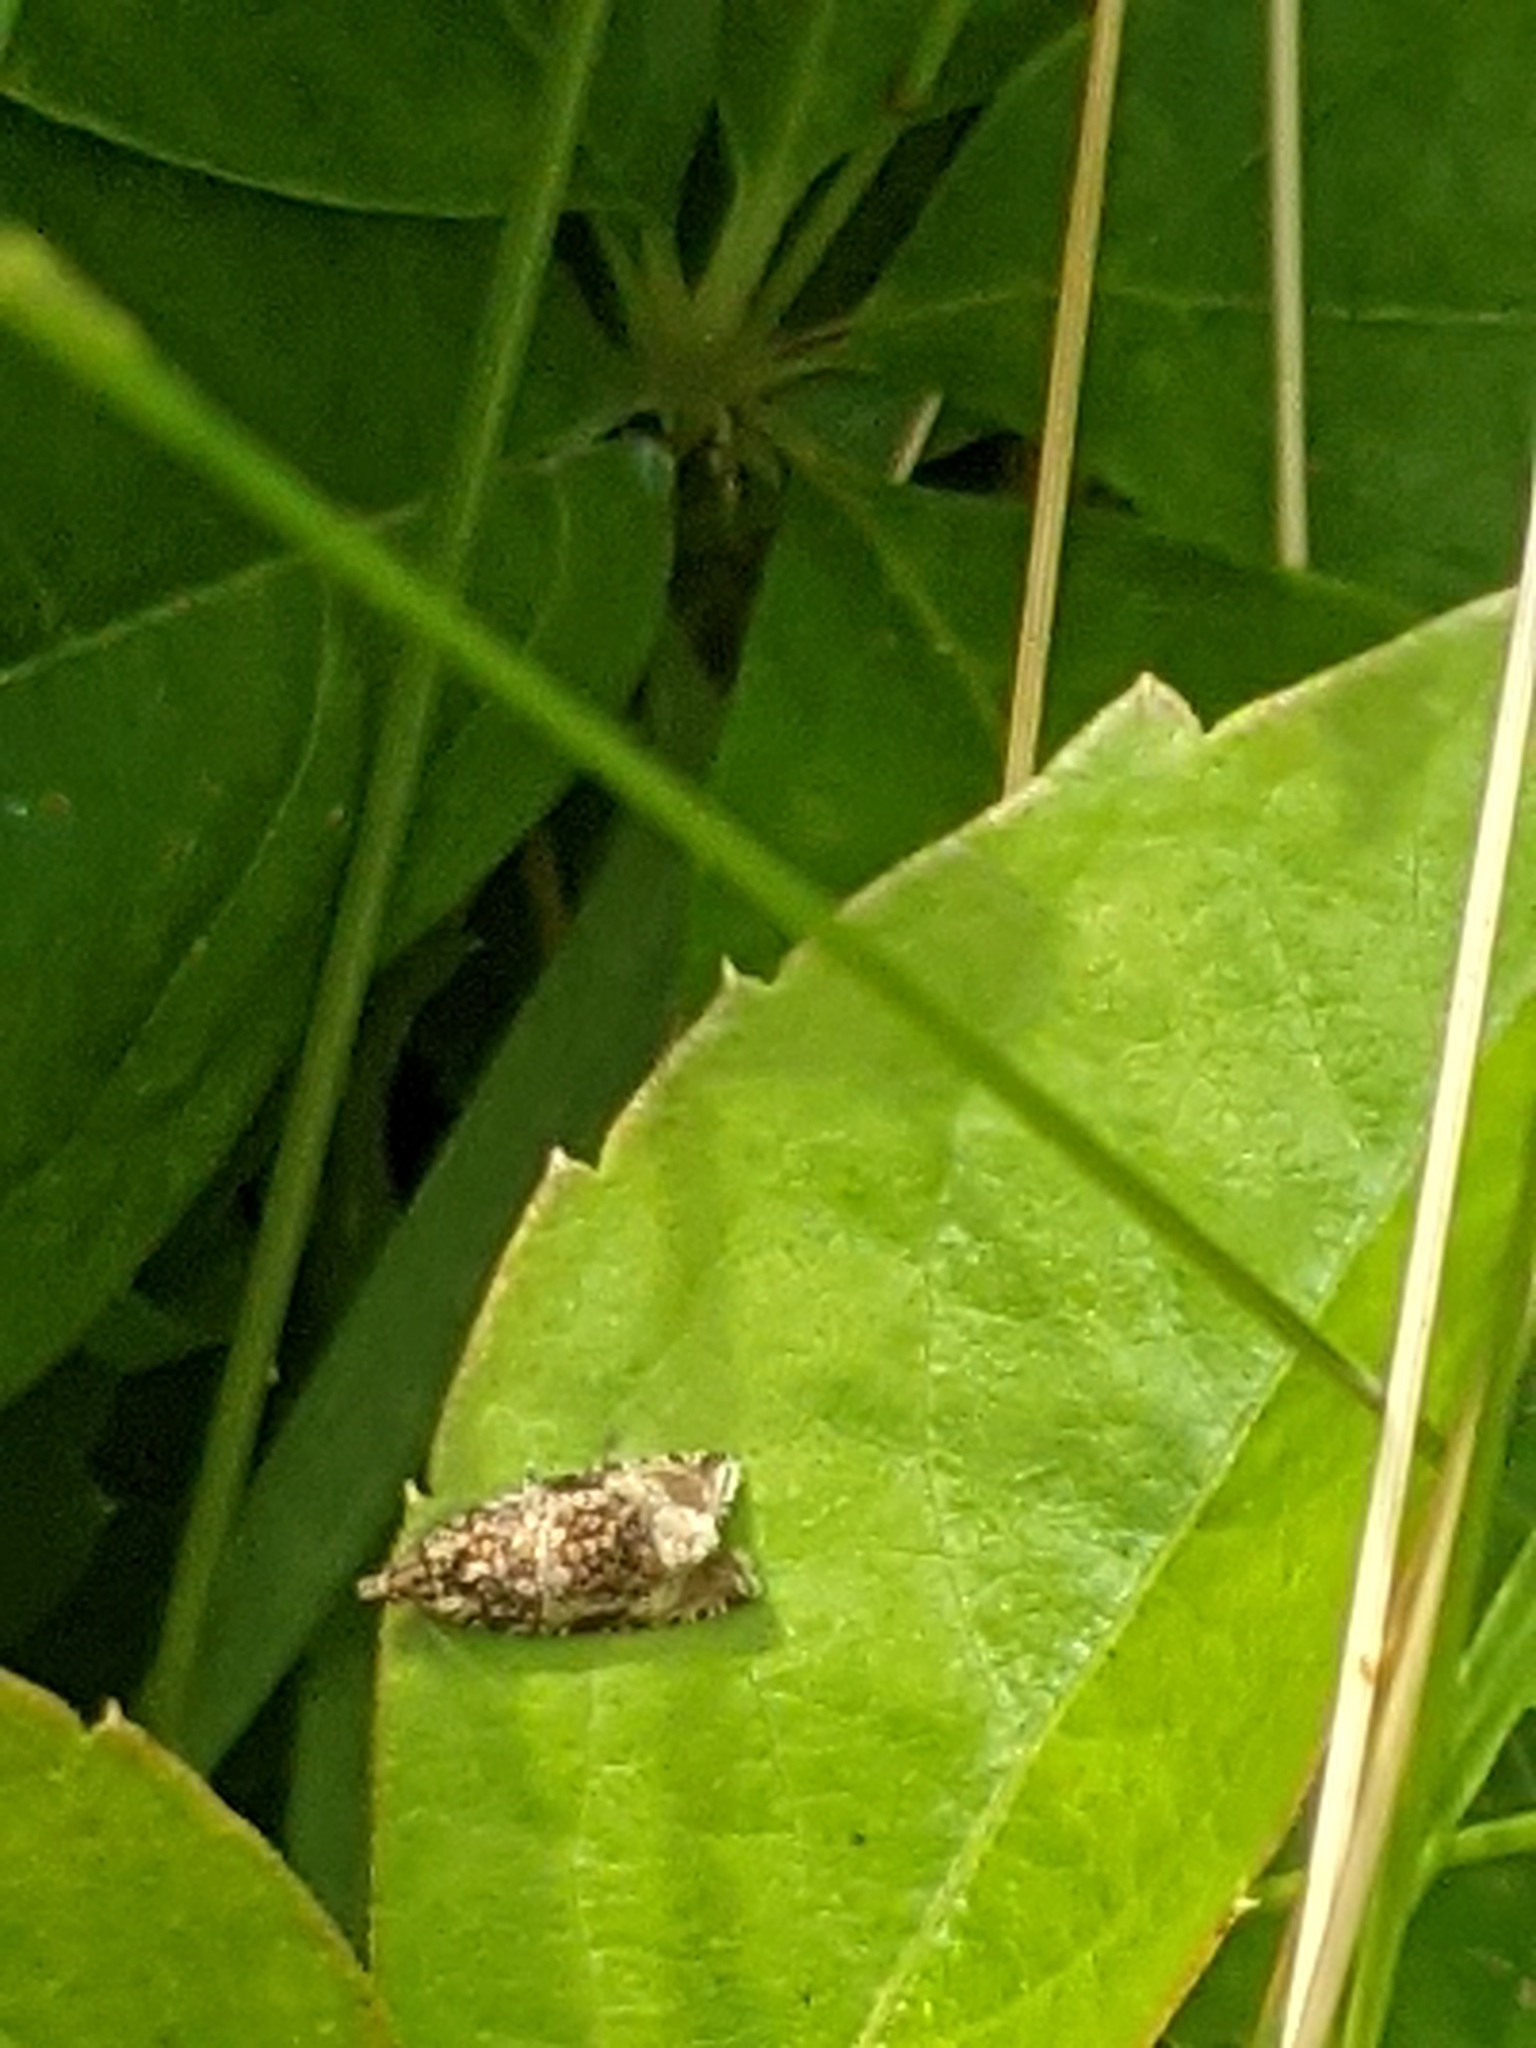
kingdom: Animalia
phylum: Arthropoda
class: Insecta
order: Lepidoptera
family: Tortricidae
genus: Syricoris
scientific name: Syricoris lacunana
